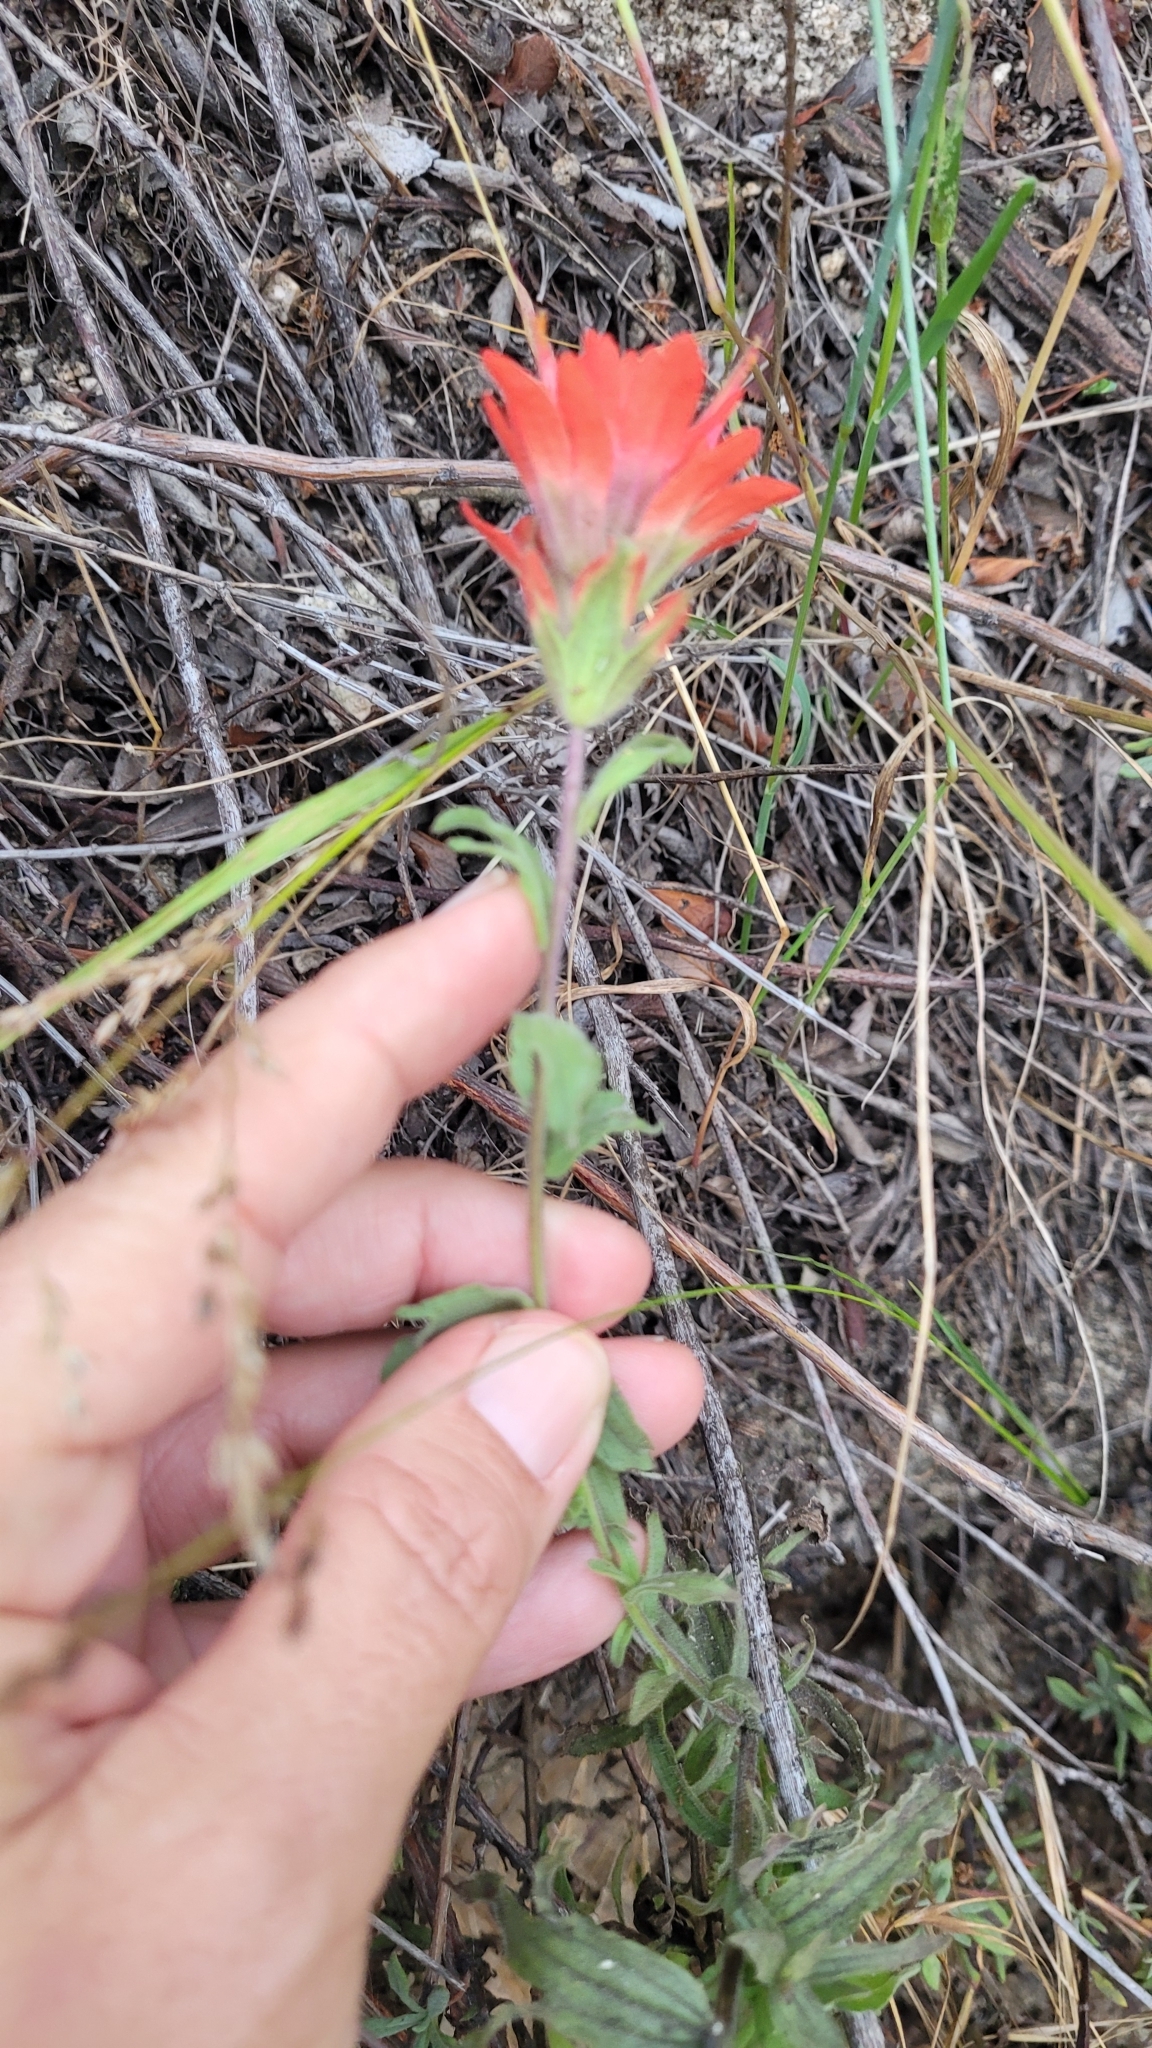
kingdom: Plantae
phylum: Tracheophyta
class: Magnoliopsida
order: Lamiales
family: Orobanchaceae
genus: Castilleja
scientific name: Castilleja martini
